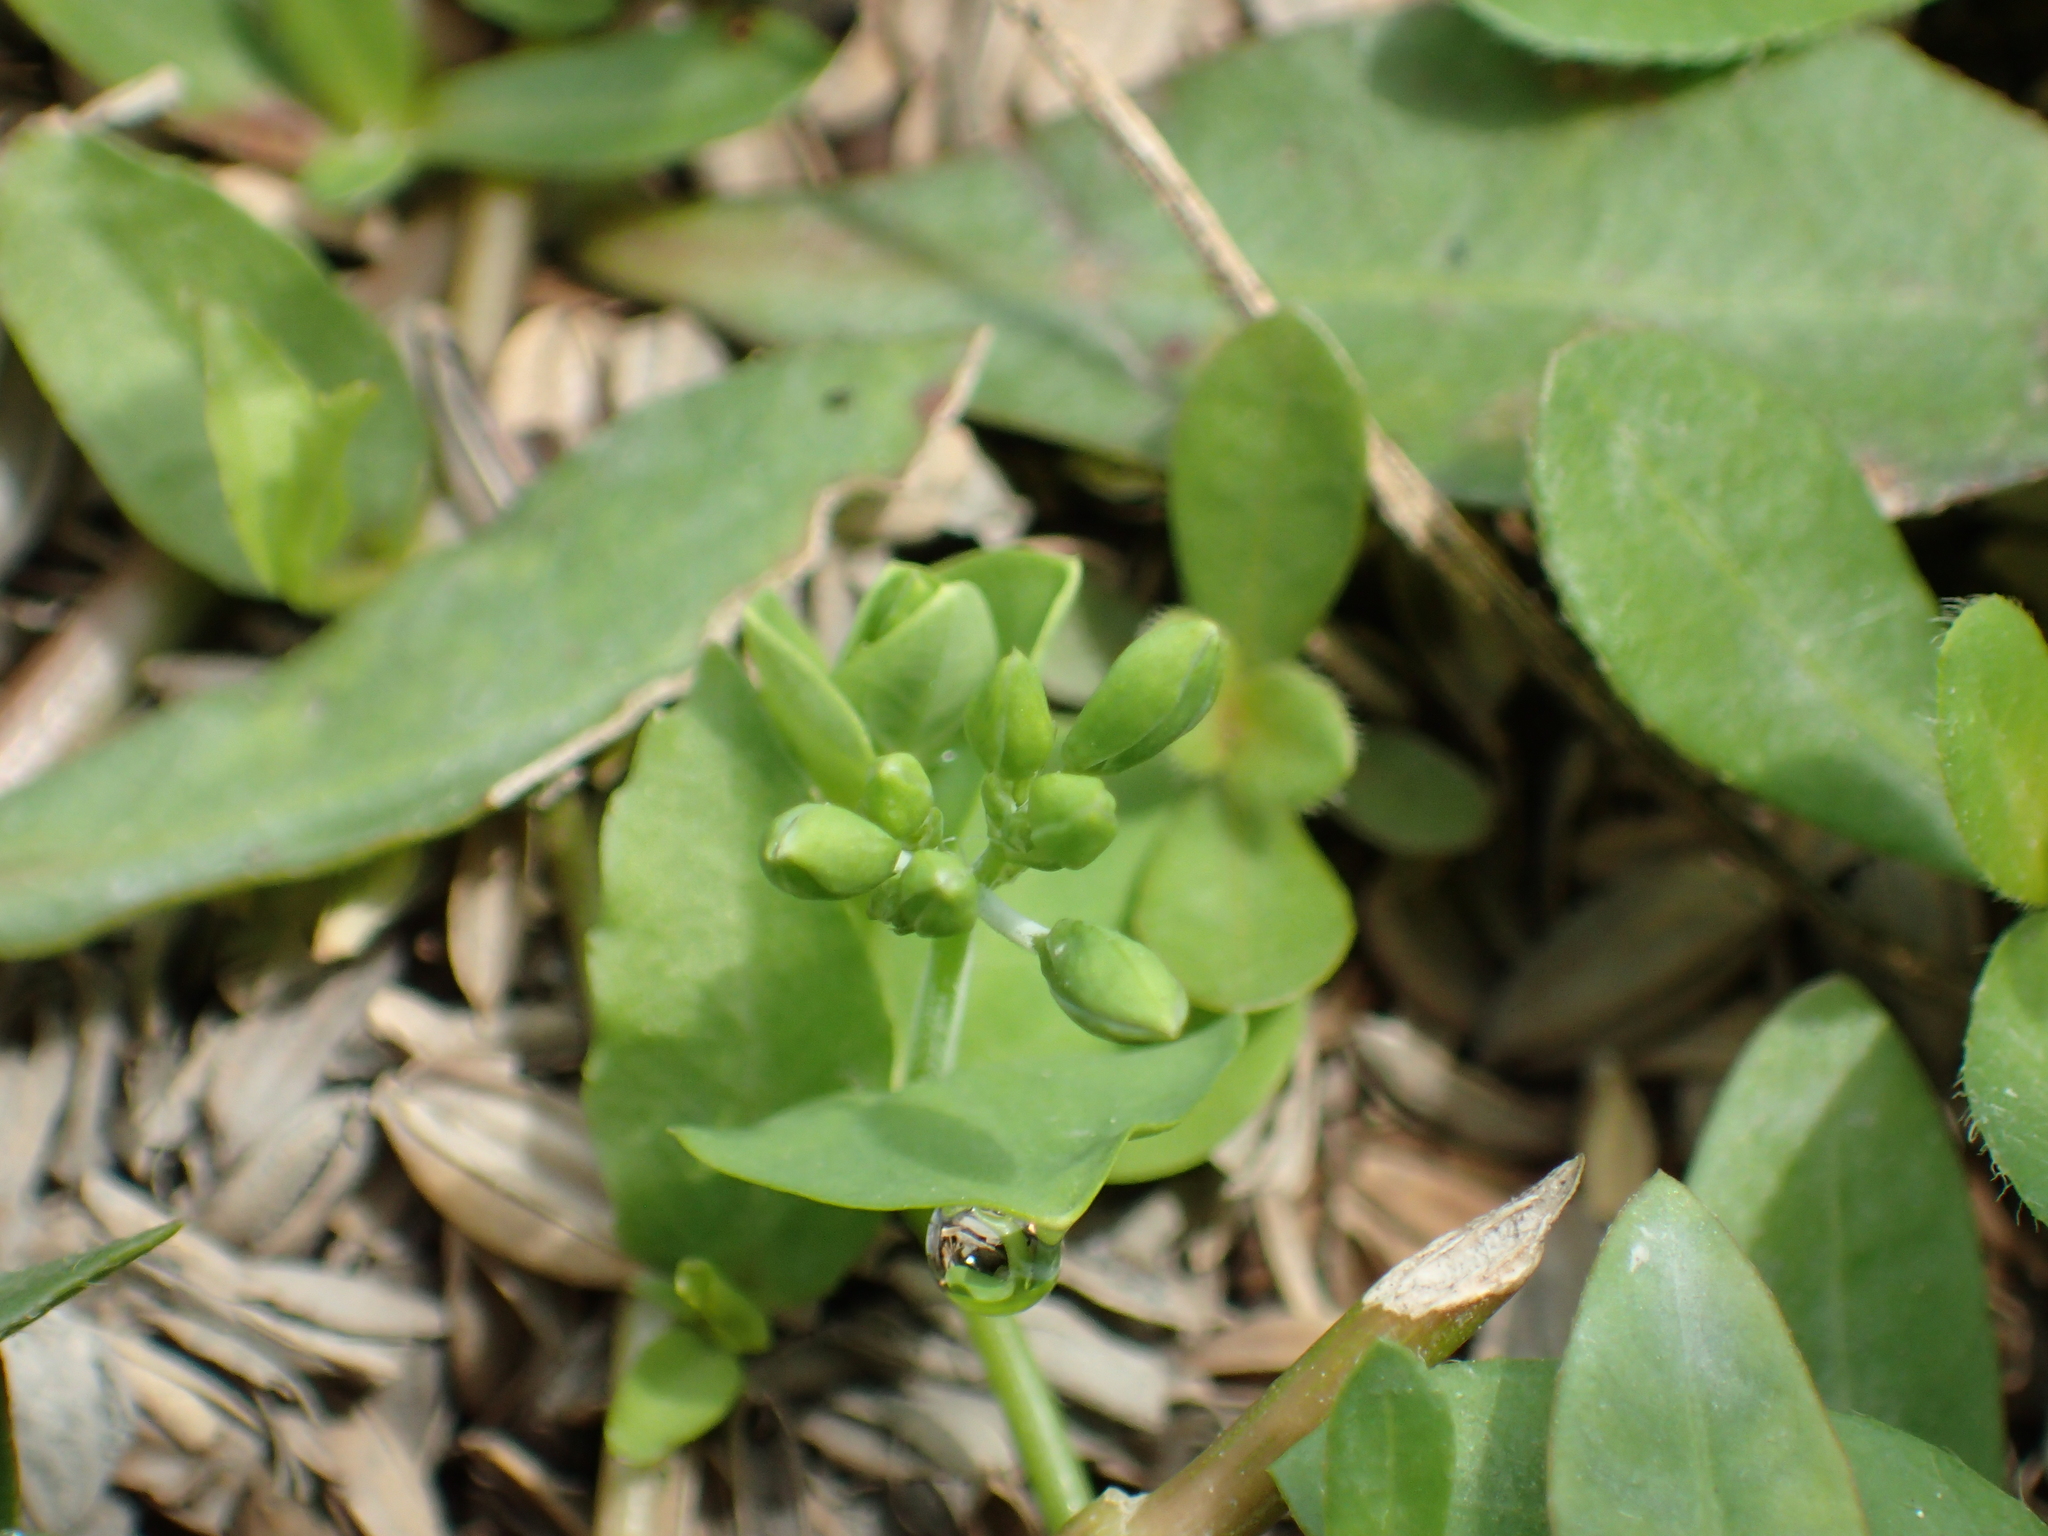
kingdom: Plantae
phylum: Tracheophyta
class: Magnoliopsida
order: Caryophyllales
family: Caryophyllaceae
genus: Drymaria
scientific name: Drymaria cordata
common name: Whitesnow
